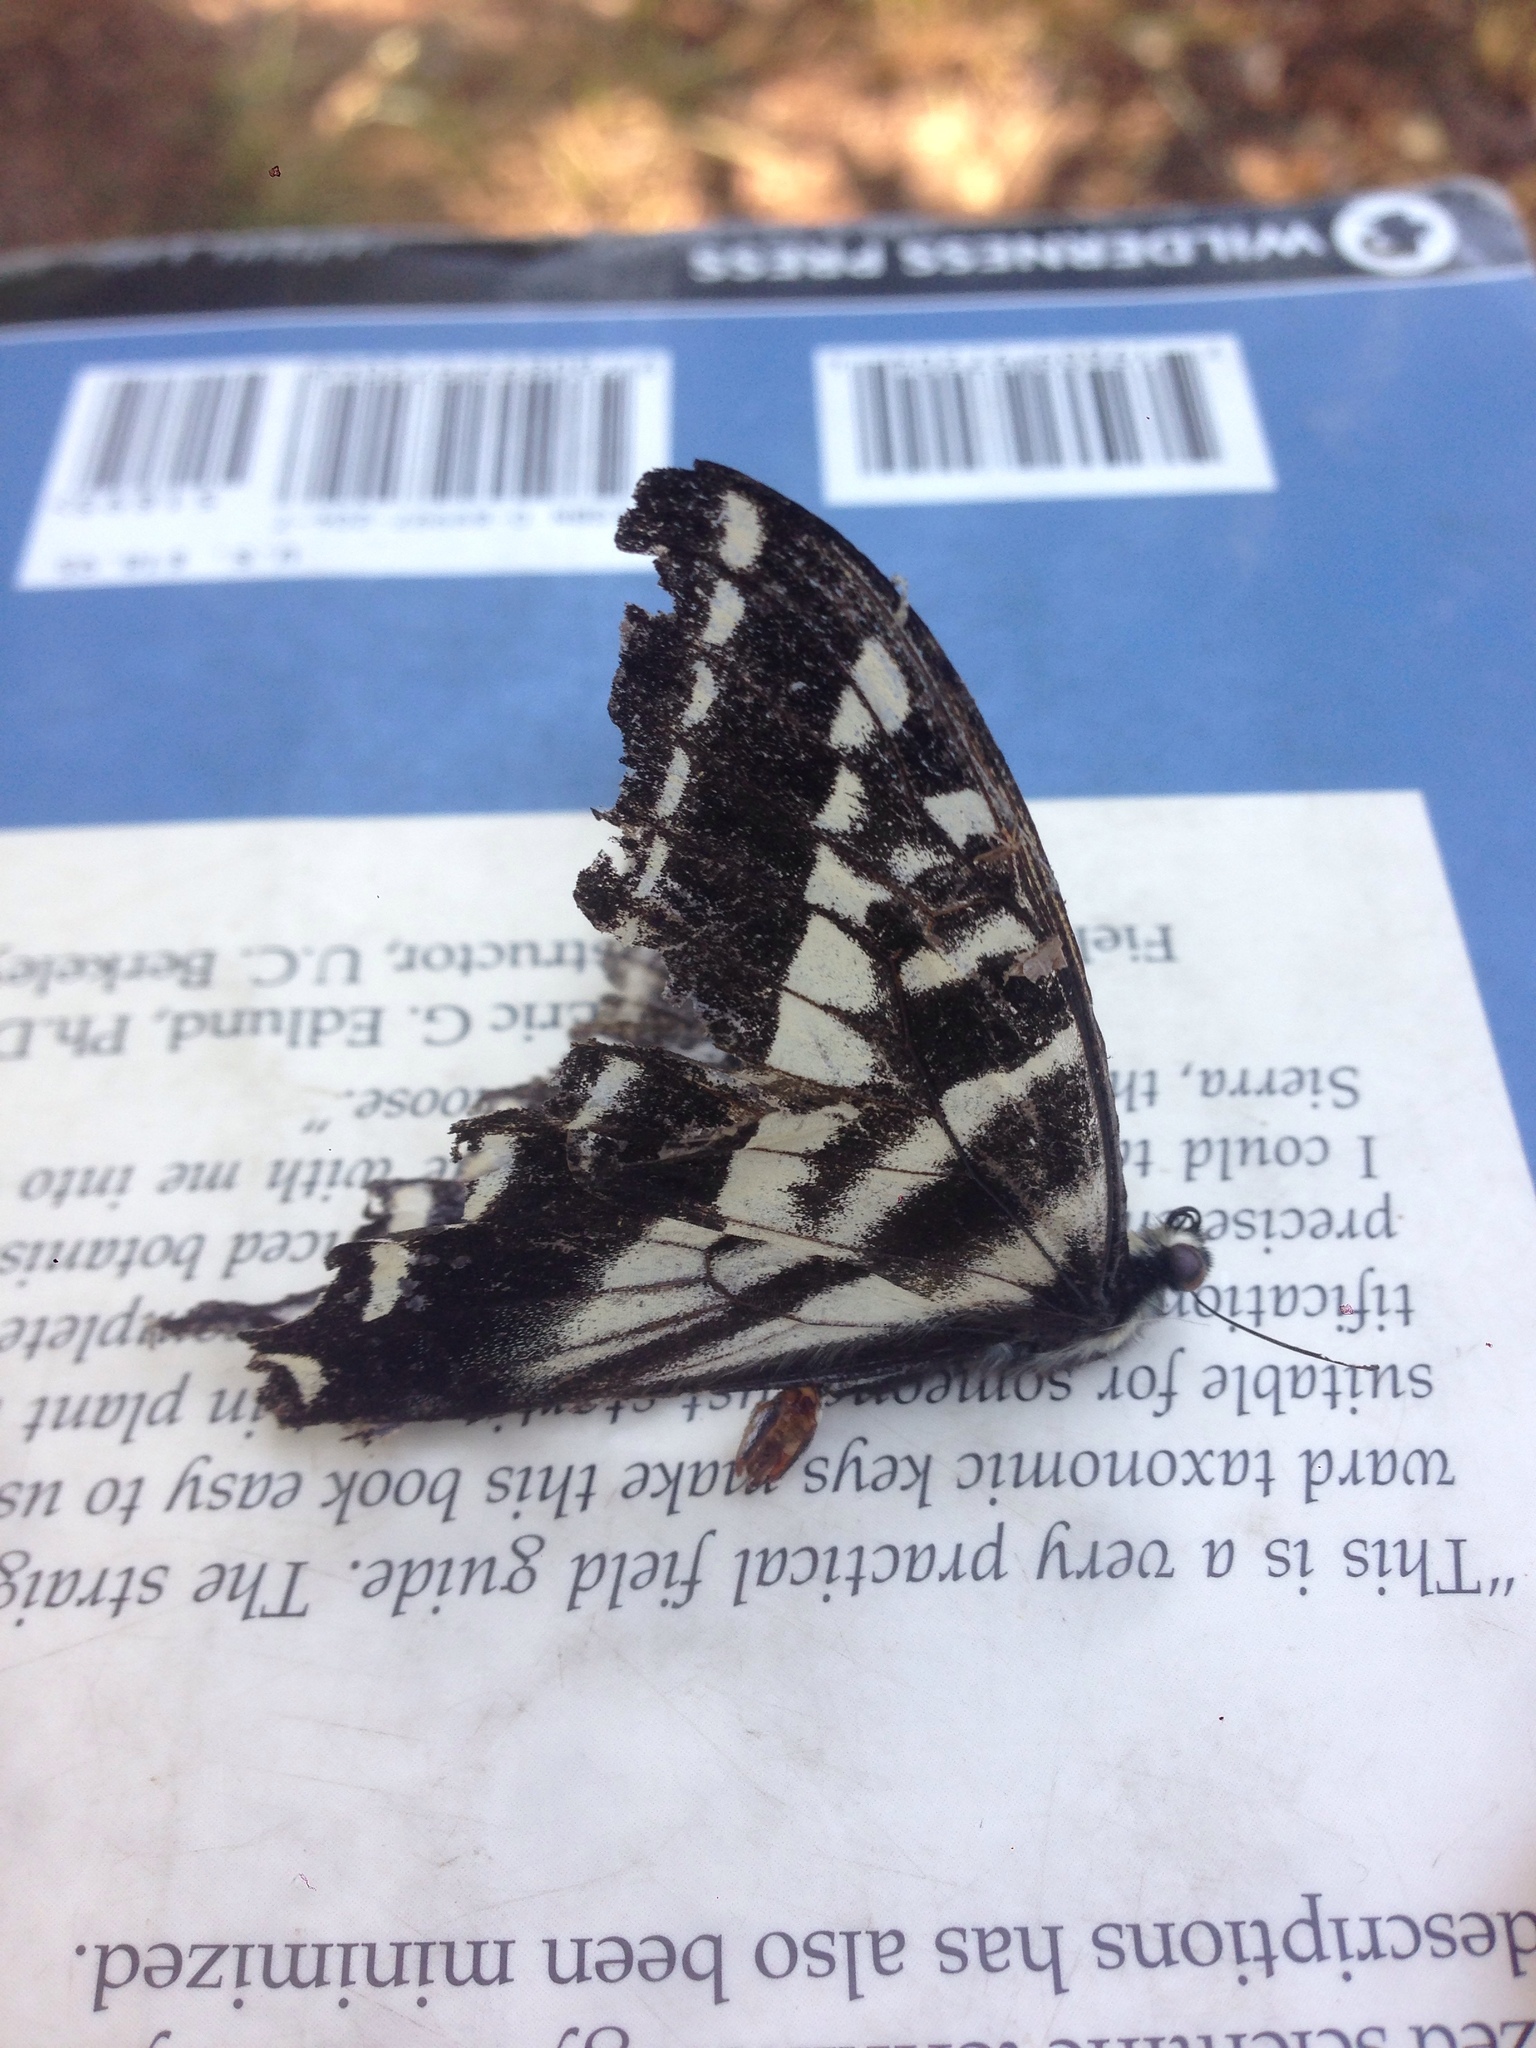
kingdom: Animalia
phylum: Arthropoda
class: Insecta
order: Lepidoptera
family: Papilionidae
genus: Papilio
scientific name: Papilio eurymedon
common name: Pale tiger swallowtail
